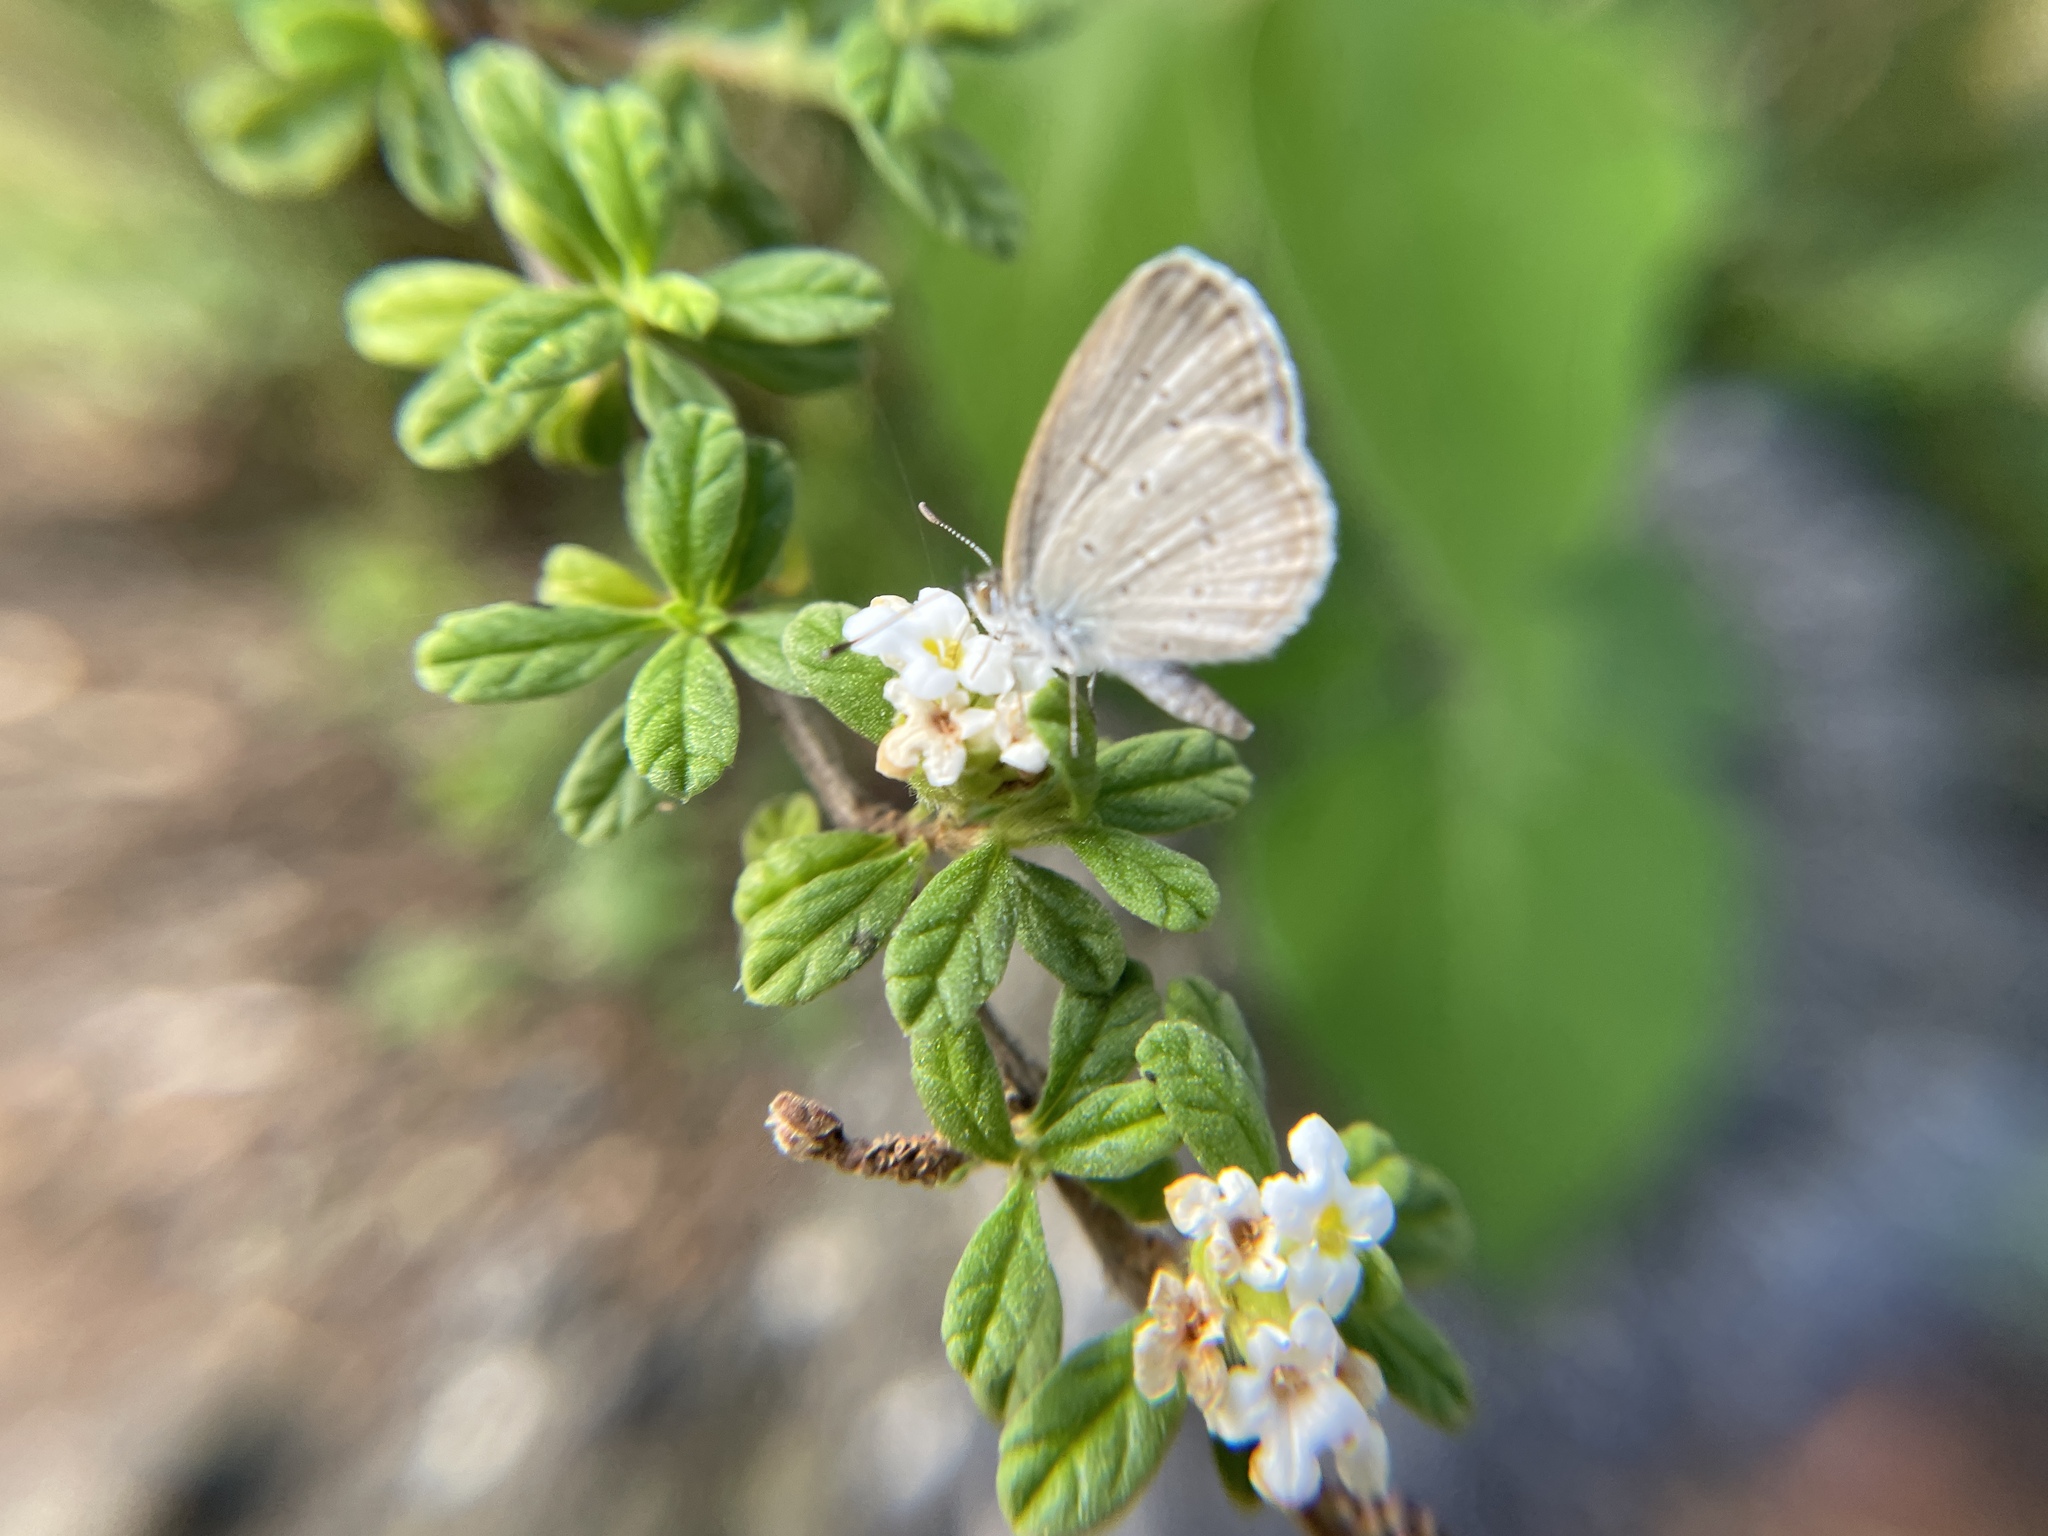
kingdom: Animalia
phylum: Arthropoda
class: Insecta
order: Lepidoptera
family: Lycaenidae
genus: Zizina
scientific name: Zizina otis
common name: Lesser grass blue
